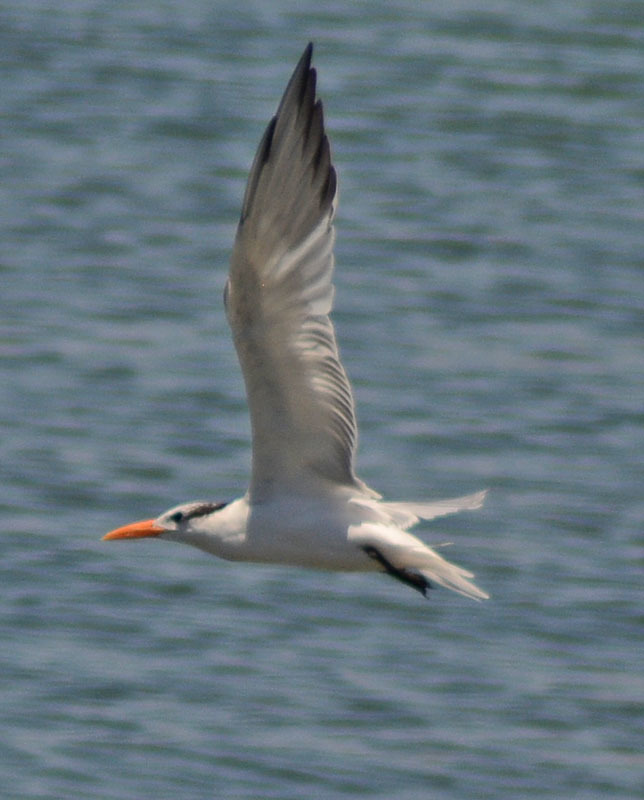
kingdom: Animalia
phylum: Chordata
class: Aves
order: Charadriiformes
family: Laridae
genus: Thalasseus
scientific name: Thalasseus maximus
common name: Royal tern
